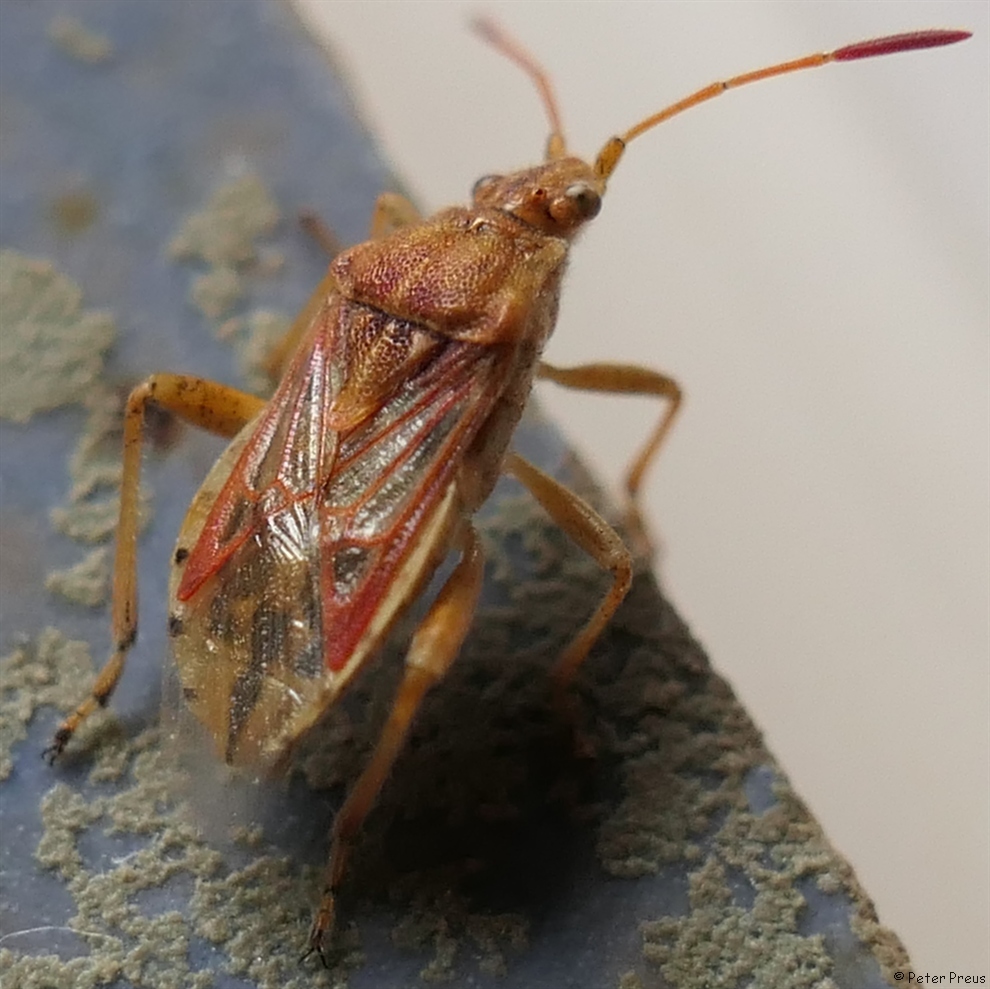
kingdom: Animalia
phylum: Arthropoda
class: Insecta
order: Hemiptera
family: Rhopalidae
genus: Stictopleurus
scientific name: Stictopleurus abutilon
